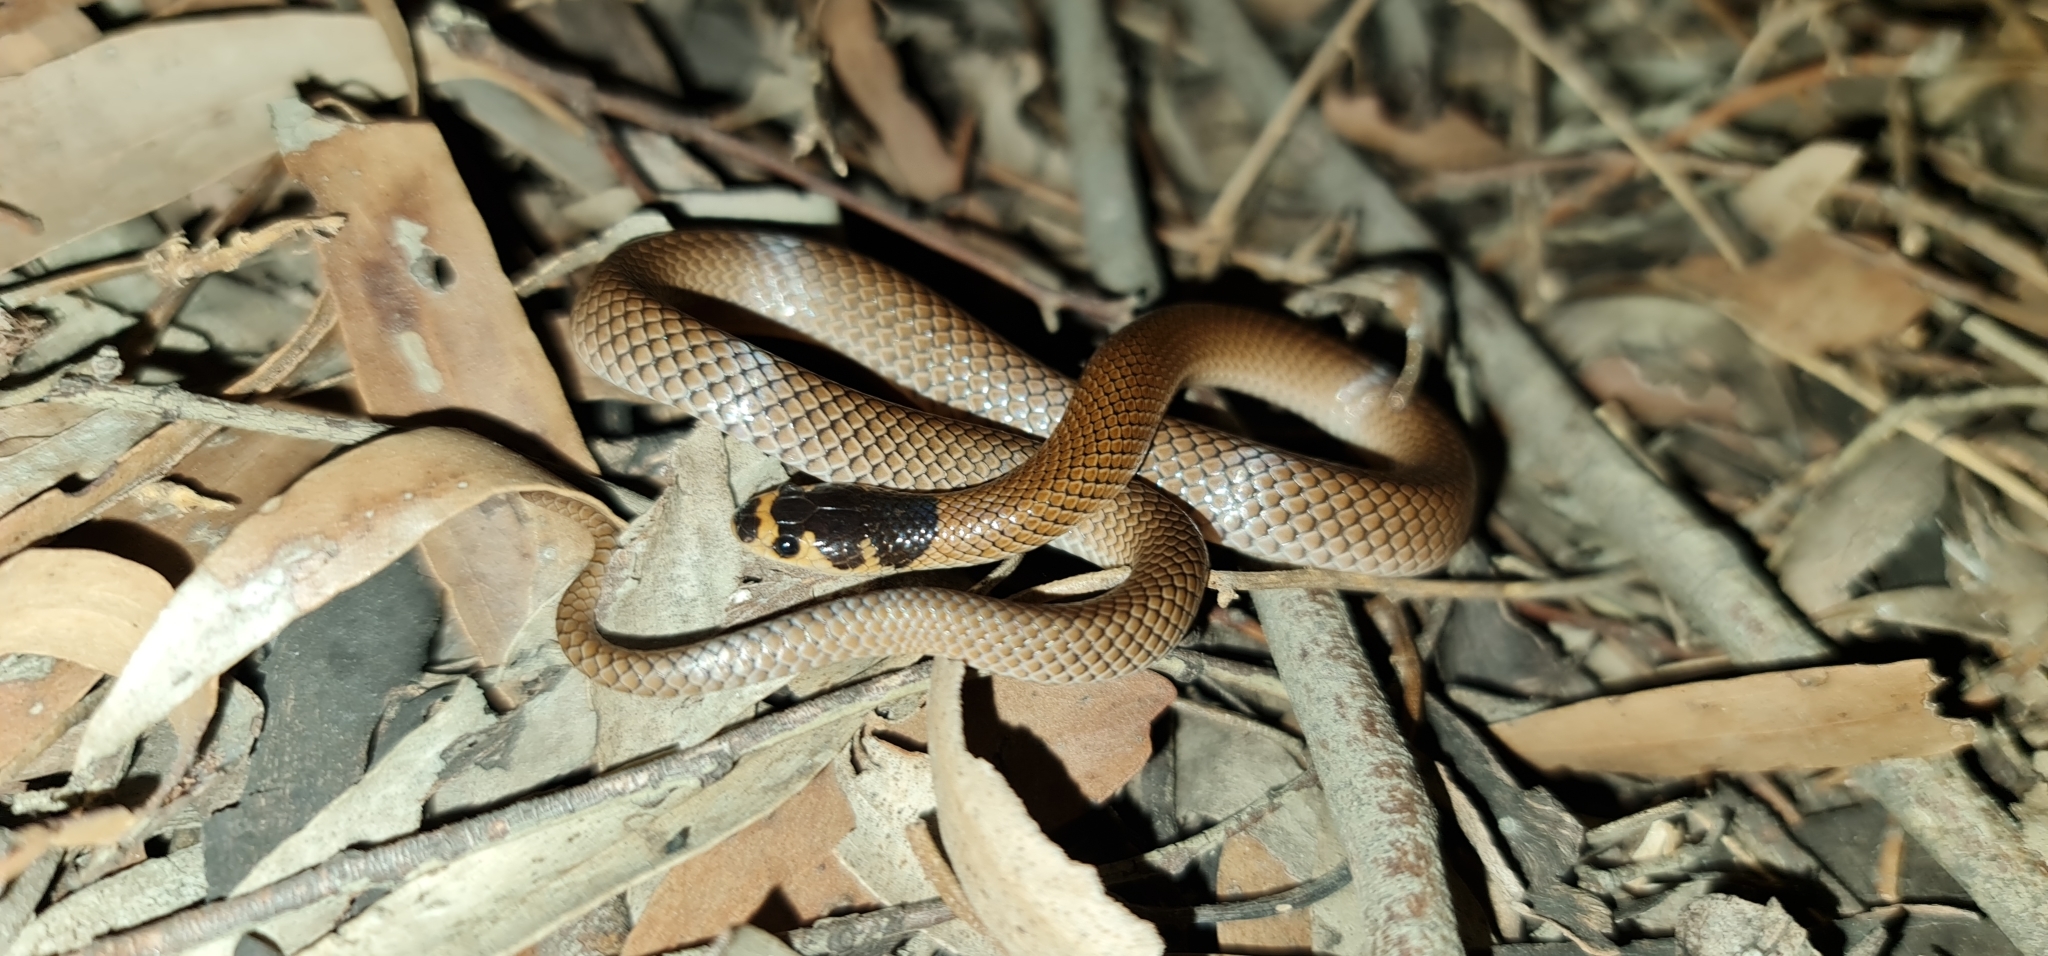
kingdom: Animalia
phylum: Chordata
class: Squamata
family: Elapidae
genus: Suta
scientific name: Suta spectabilis
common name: Bush’s hooded snake
